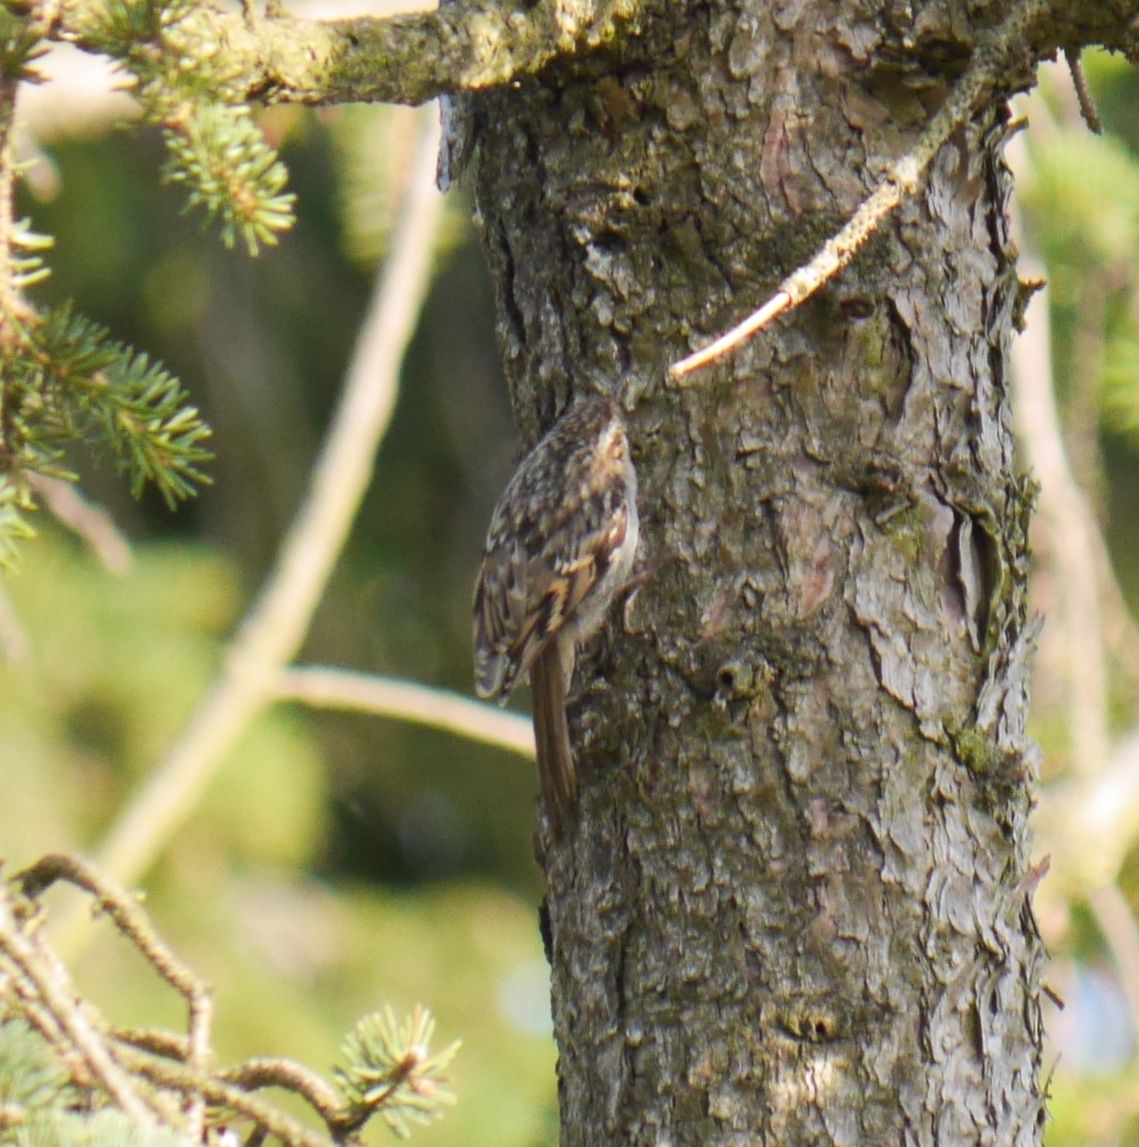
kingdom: Animalia
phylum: Chordata
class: Aves
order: Passeriformes
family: Certhiidae
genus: Certhia
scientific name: Certhia brachydactyla
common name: Short-toed treecreeper
